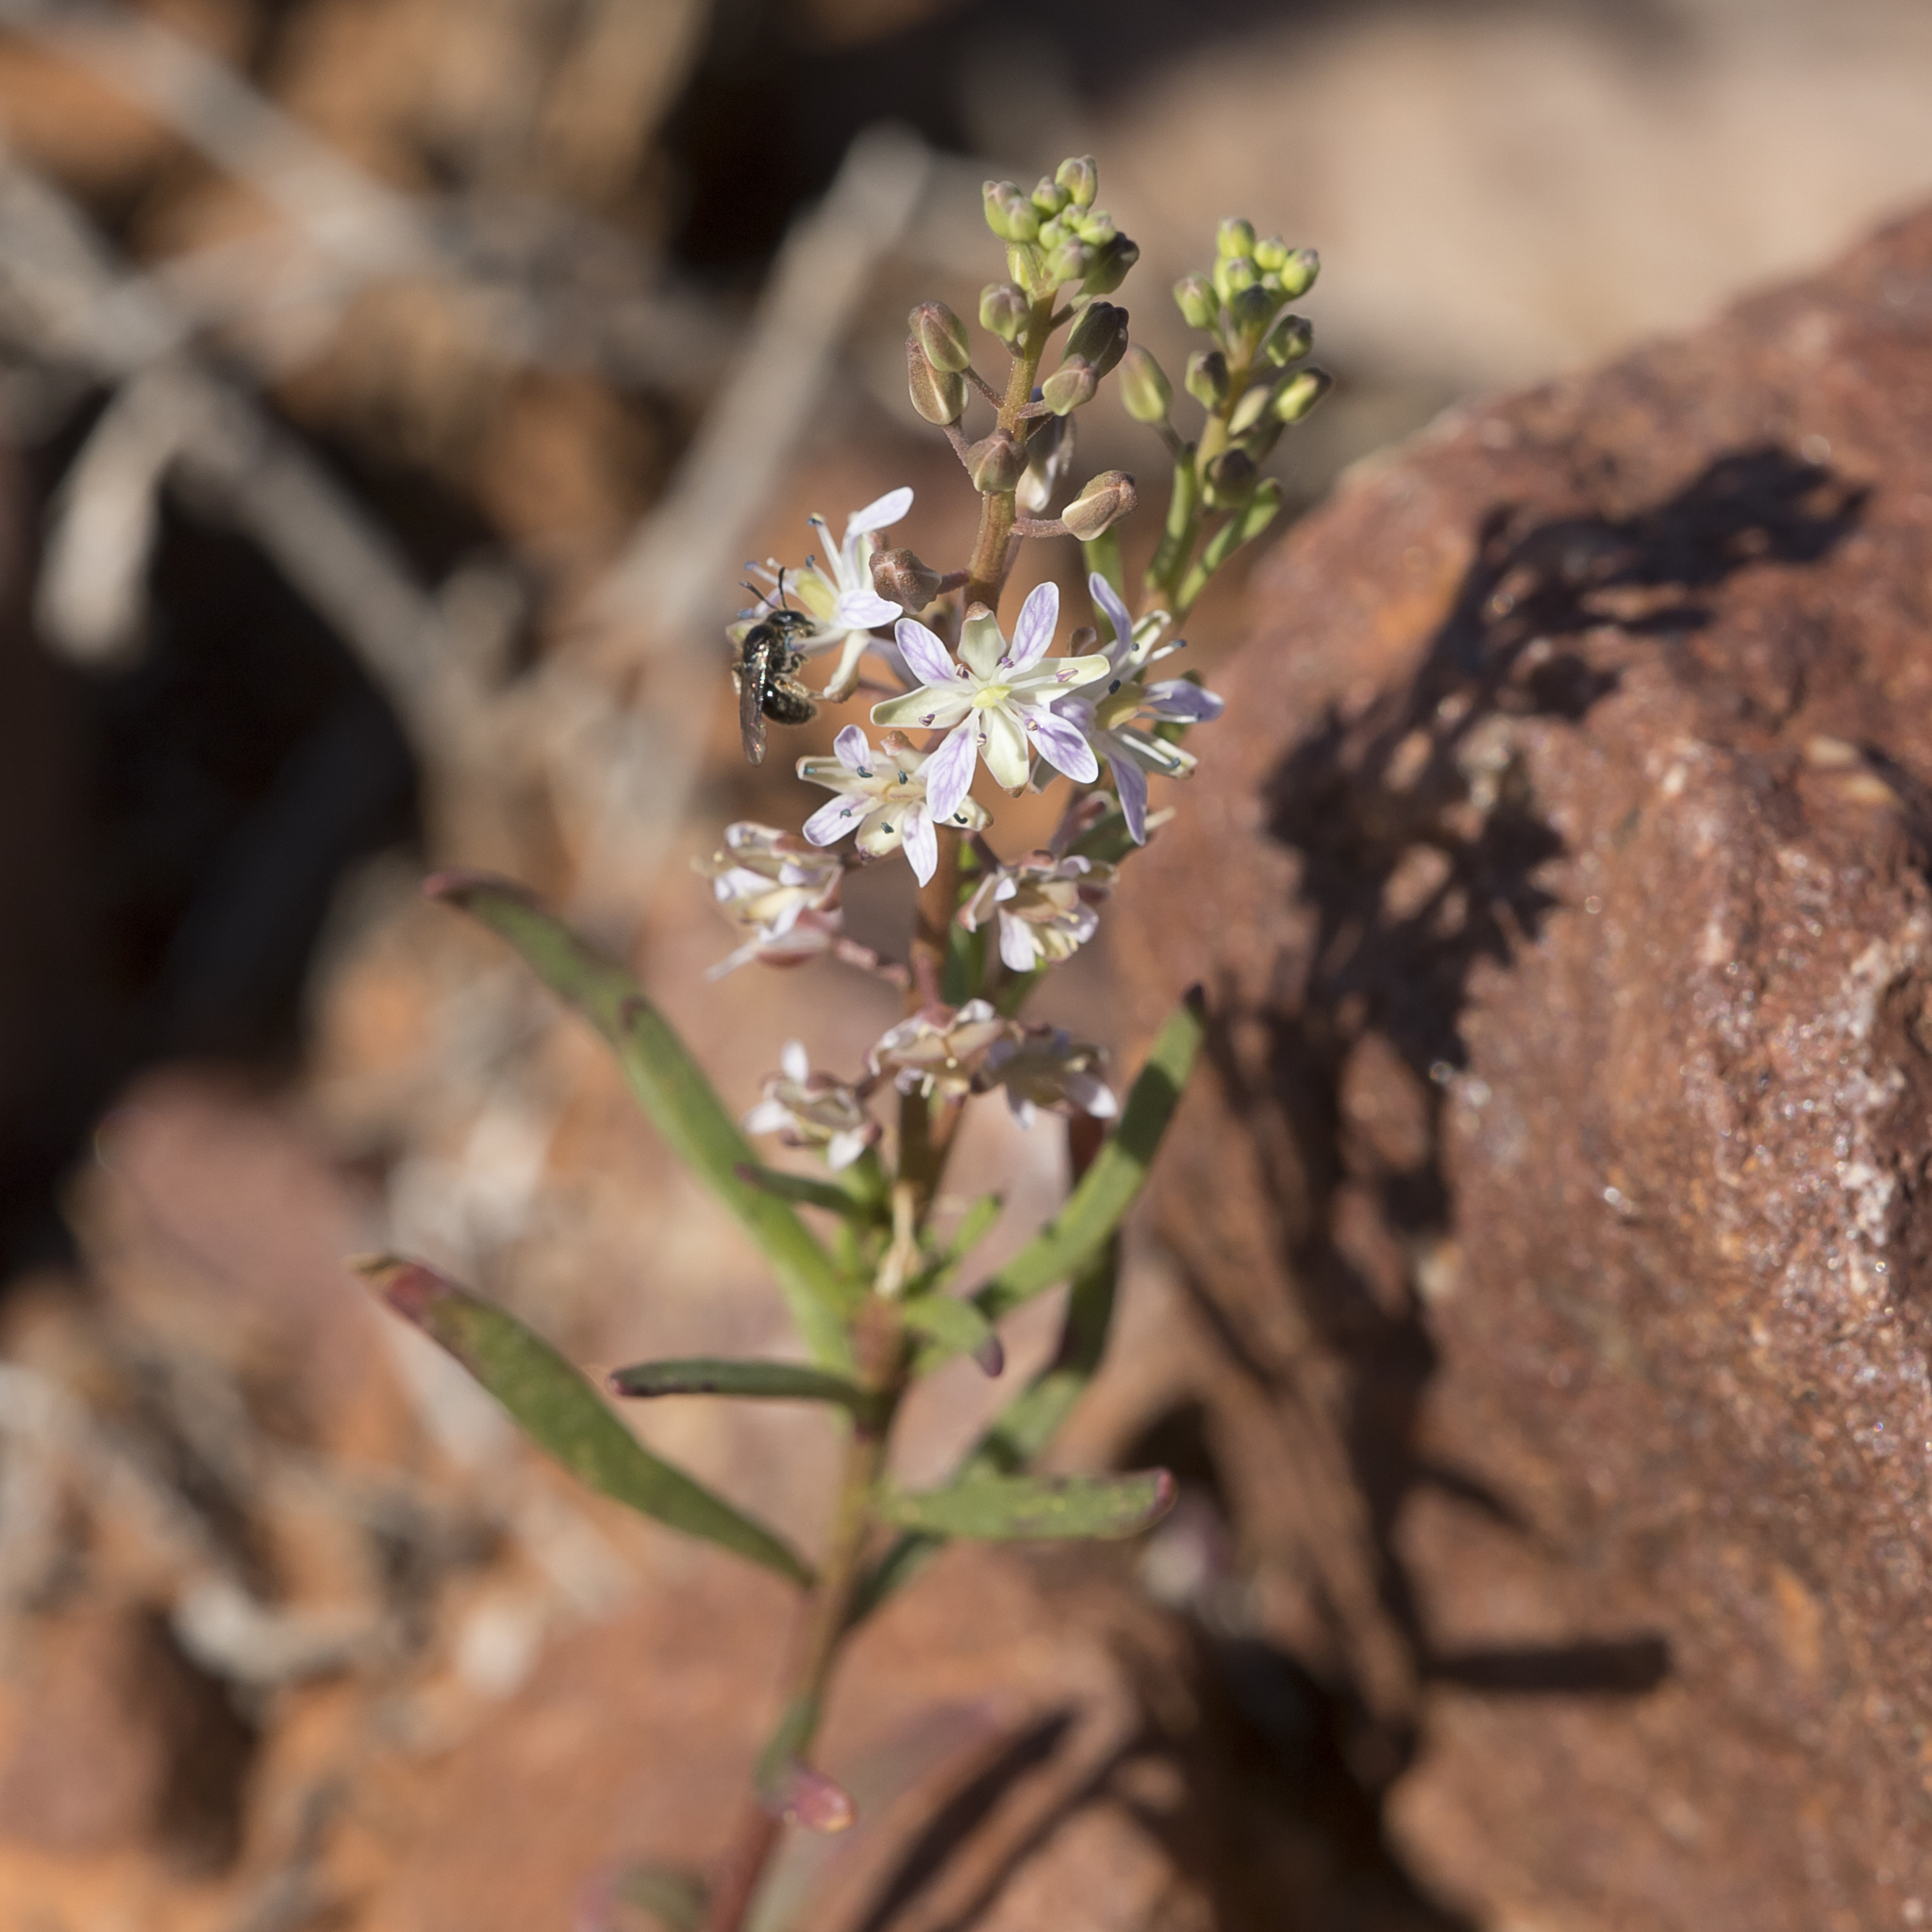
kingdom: Plantae
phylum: Tracheophyta
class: Magnoliopsida
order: Brassicales
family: Brassicaceae
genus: Lepidium
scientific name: Lepidium phlebopetalum
